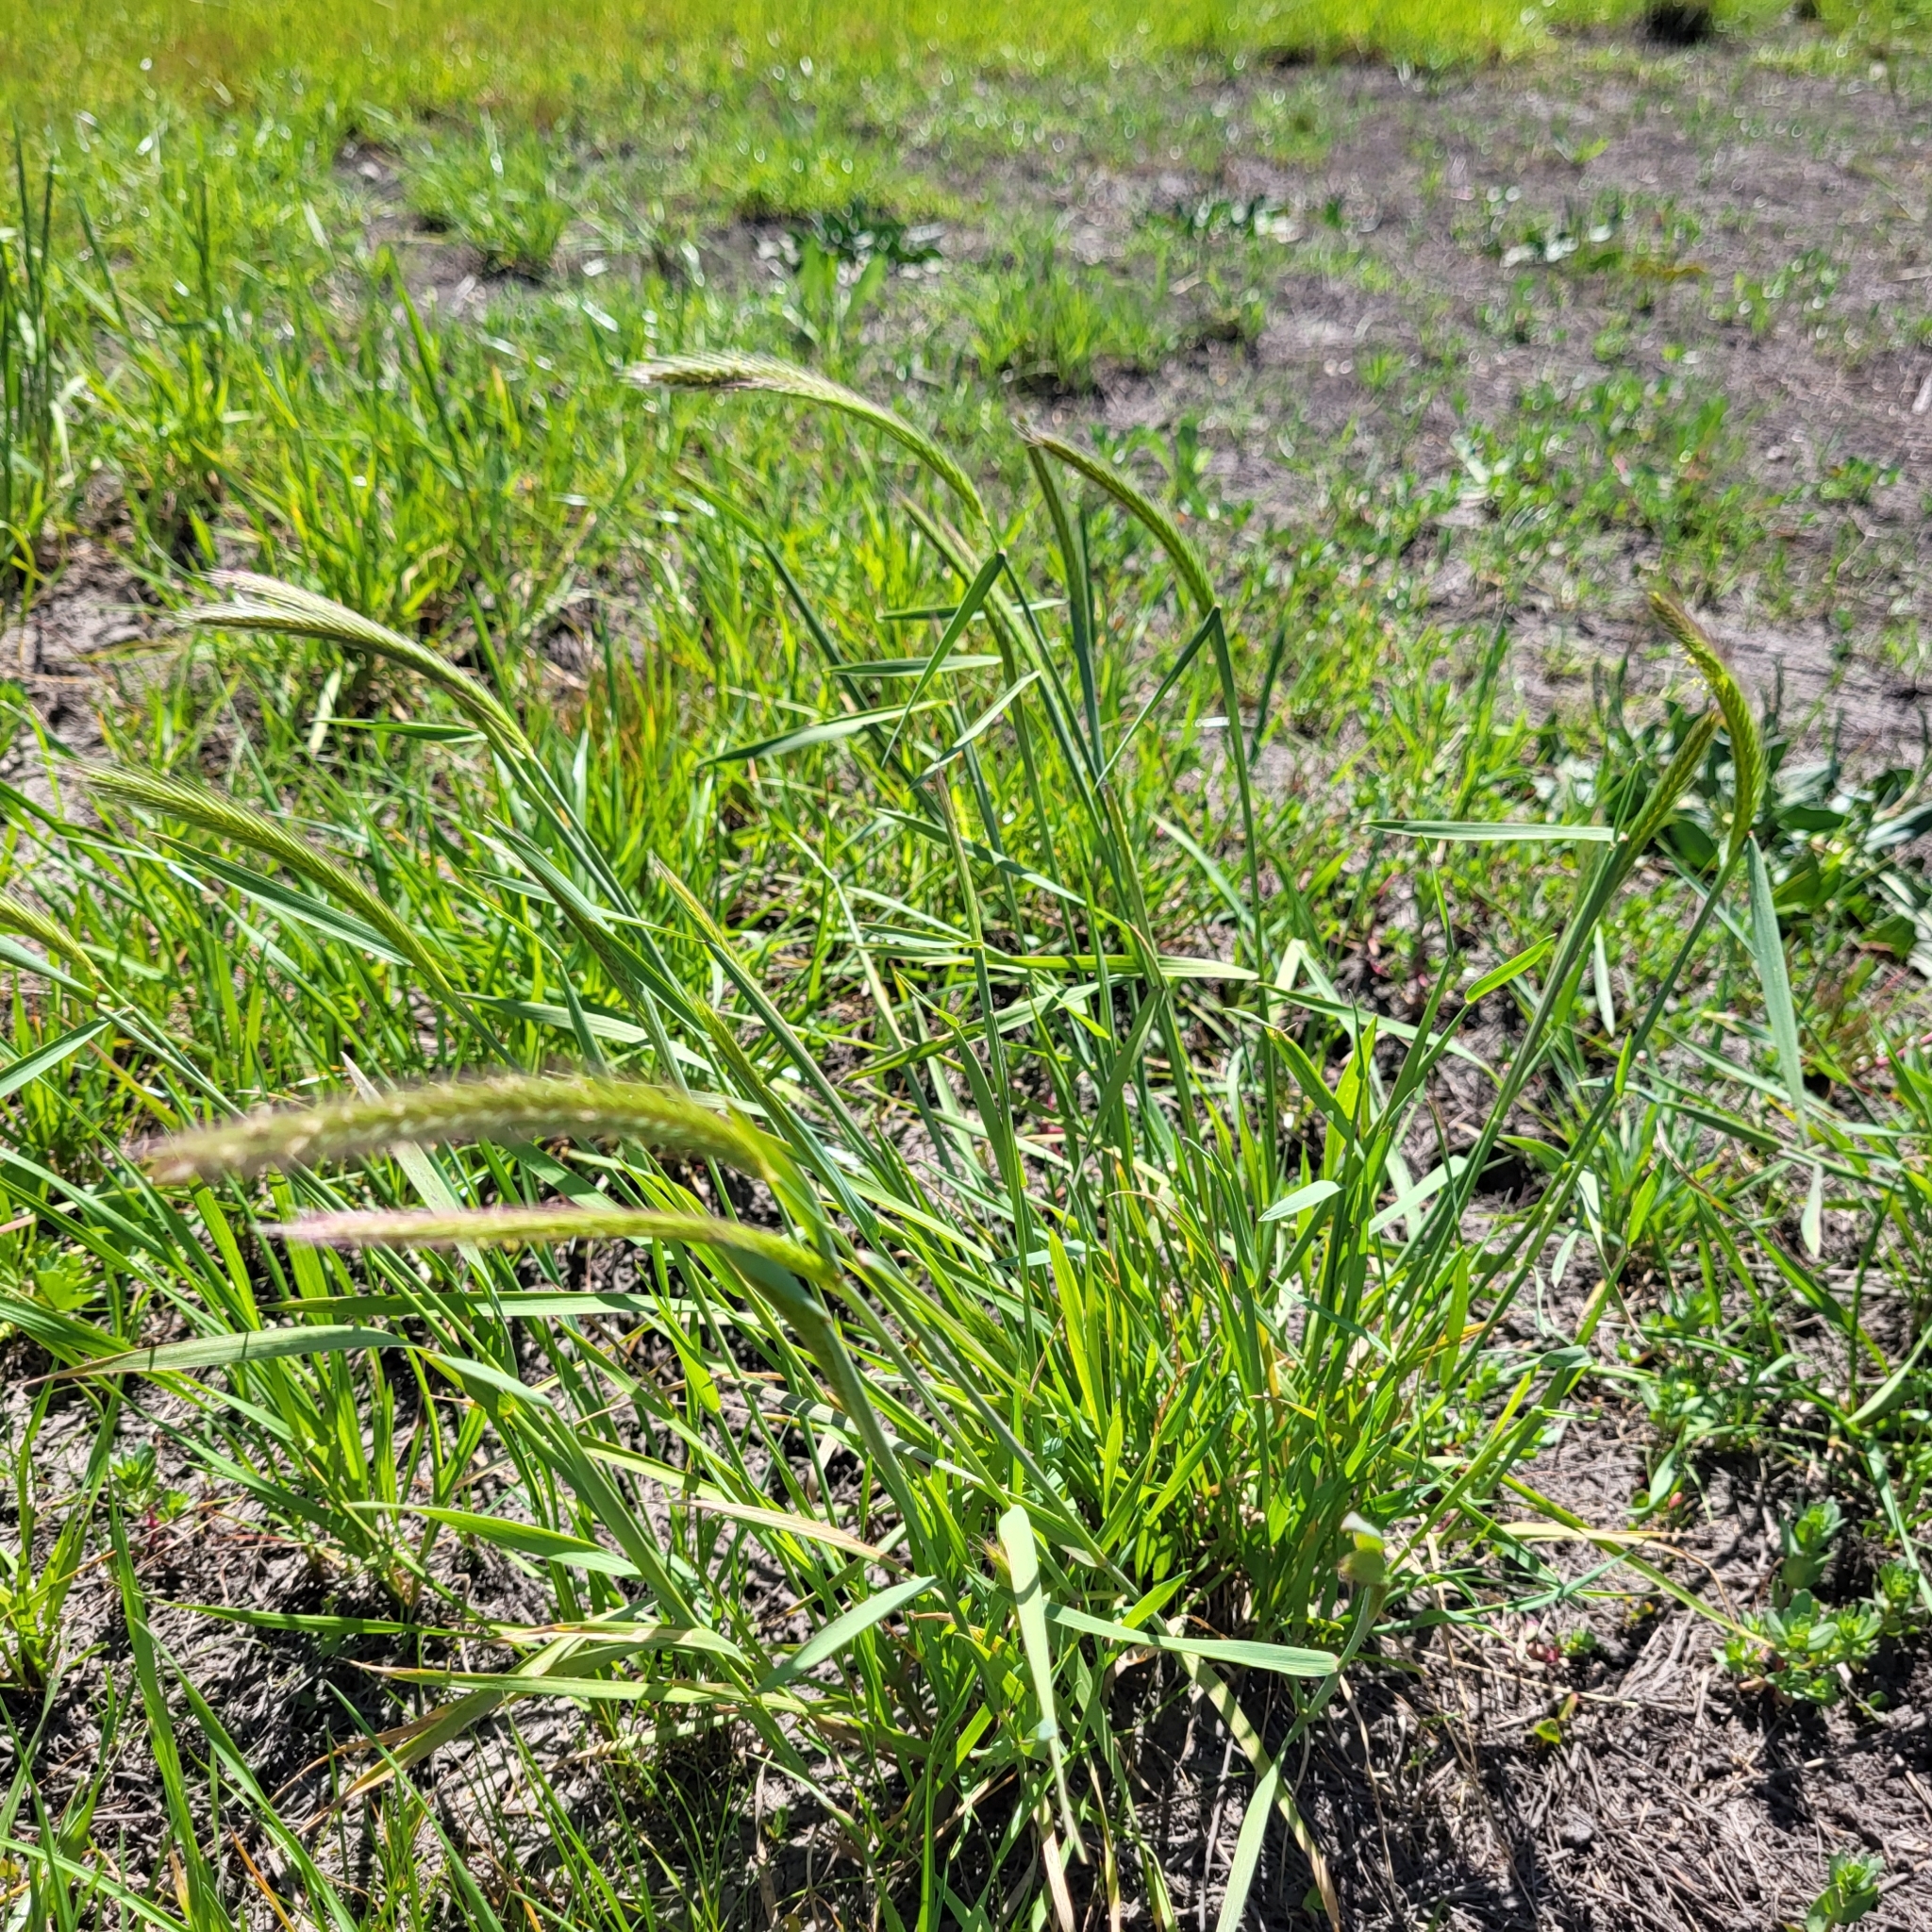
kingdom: Plantae
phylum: Tracheophyta
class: Liliopsida
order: Poales
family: Poaceae
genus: Hordeum
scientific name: Hordeum brachyantherum
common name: Meadow barley
